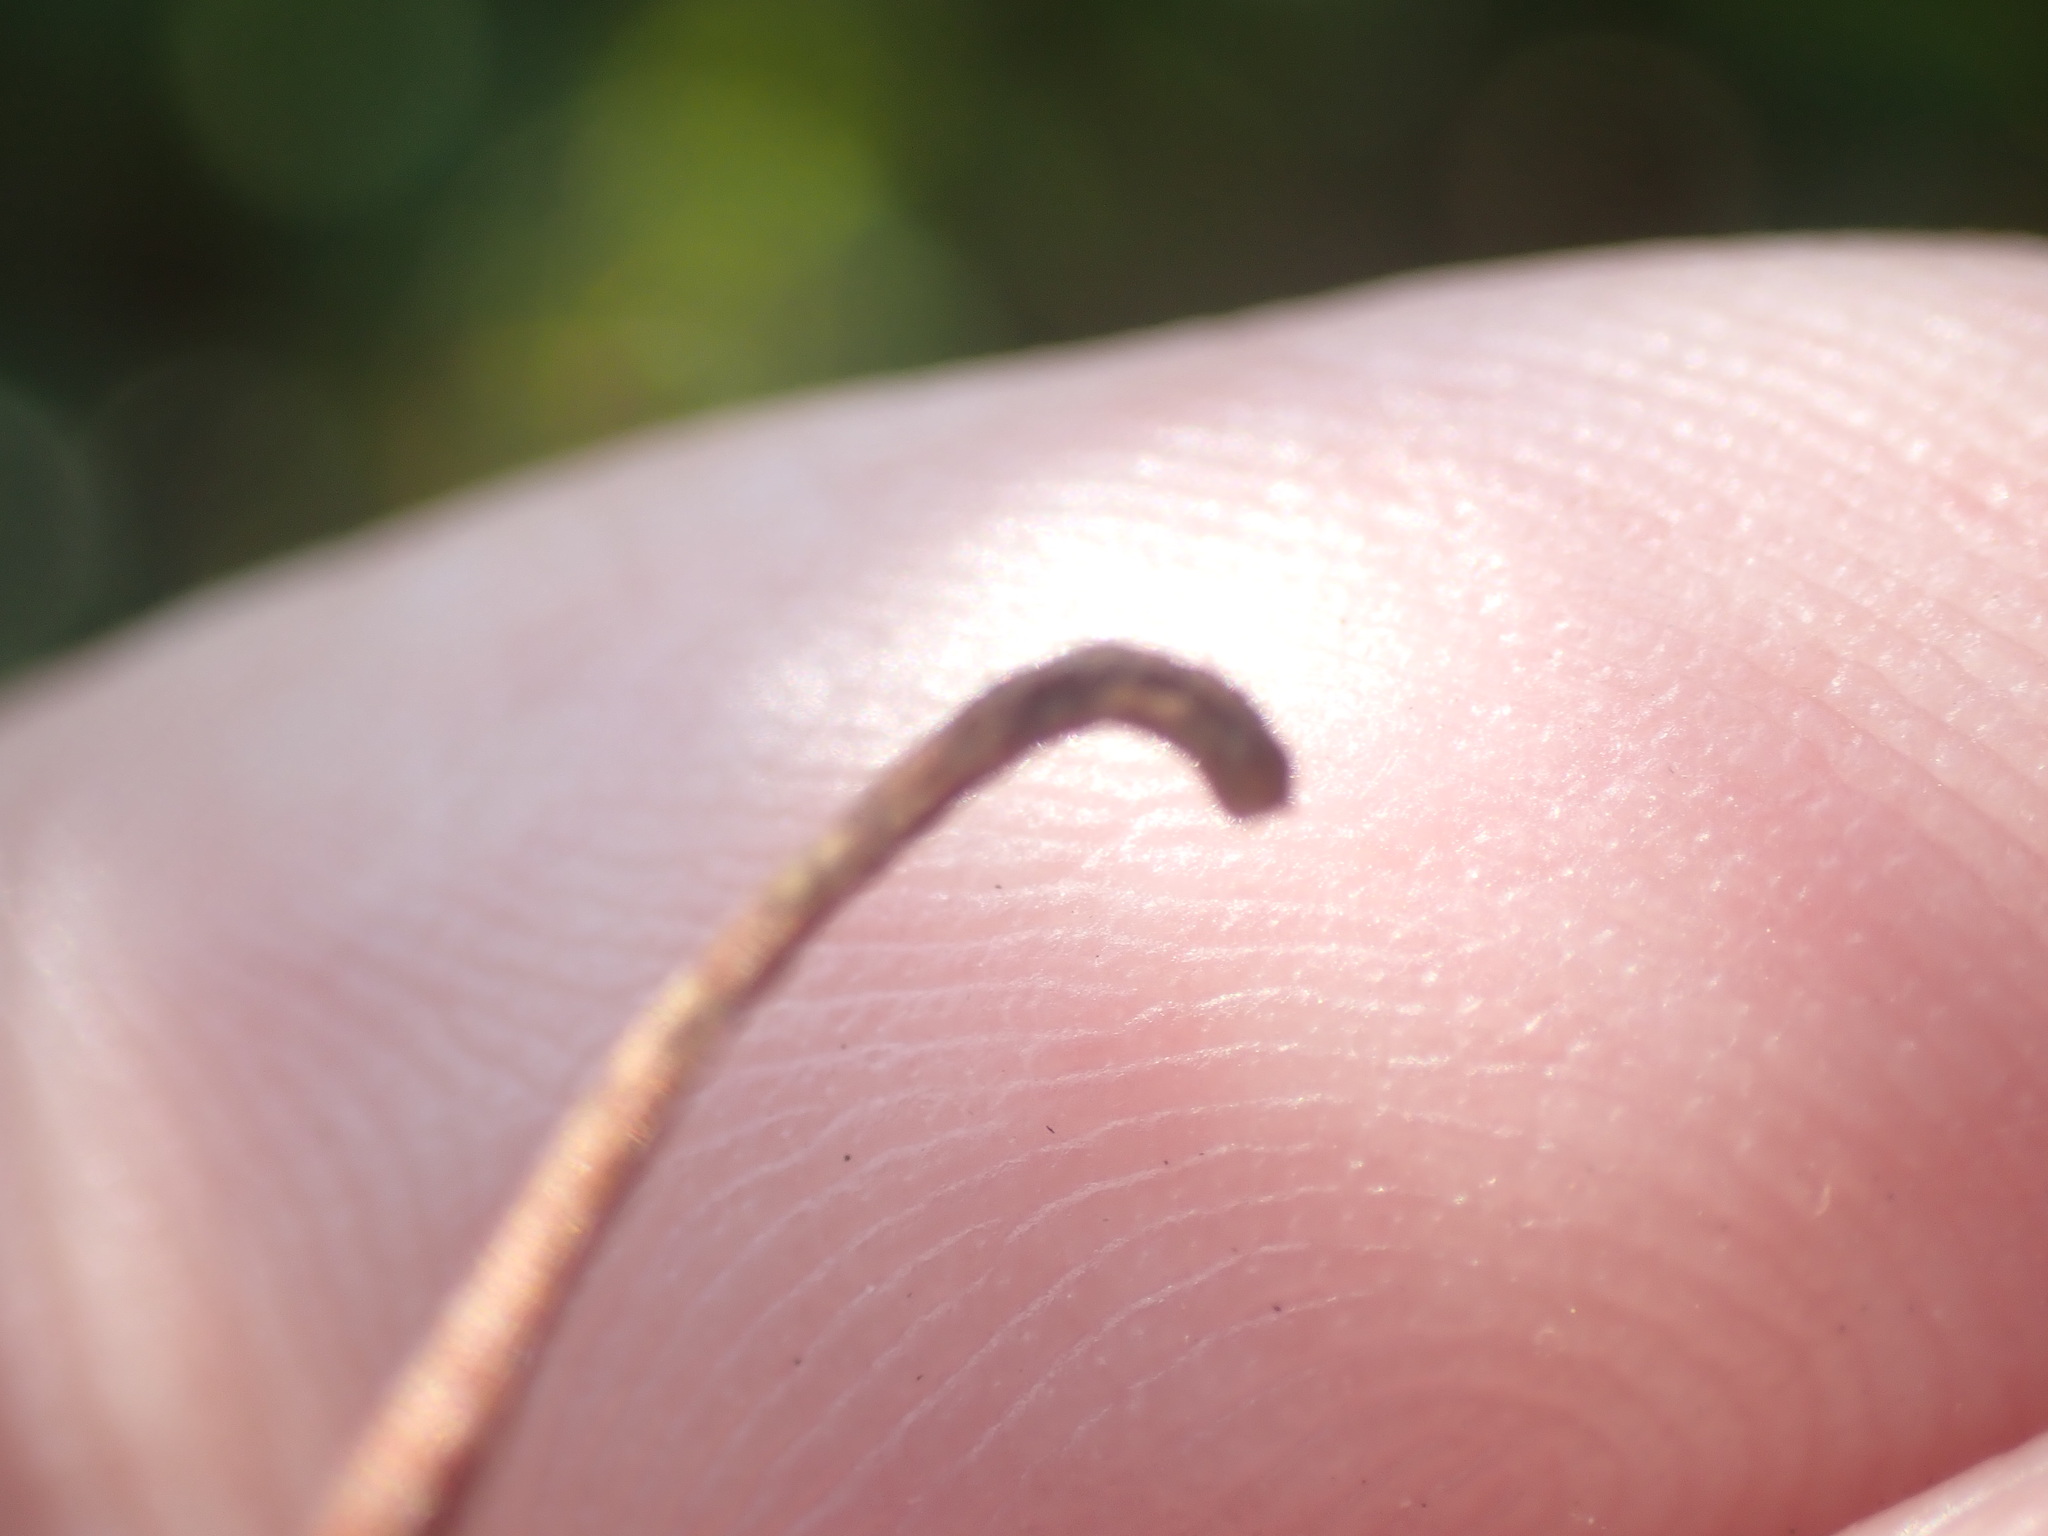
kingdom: Plantae
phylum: Tracheophyta
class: Magnoliopsida
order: Vitales
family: Vitaceae
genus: Parthenocissus
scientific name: Parthenocissus inserta
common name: False virginia-creeper
